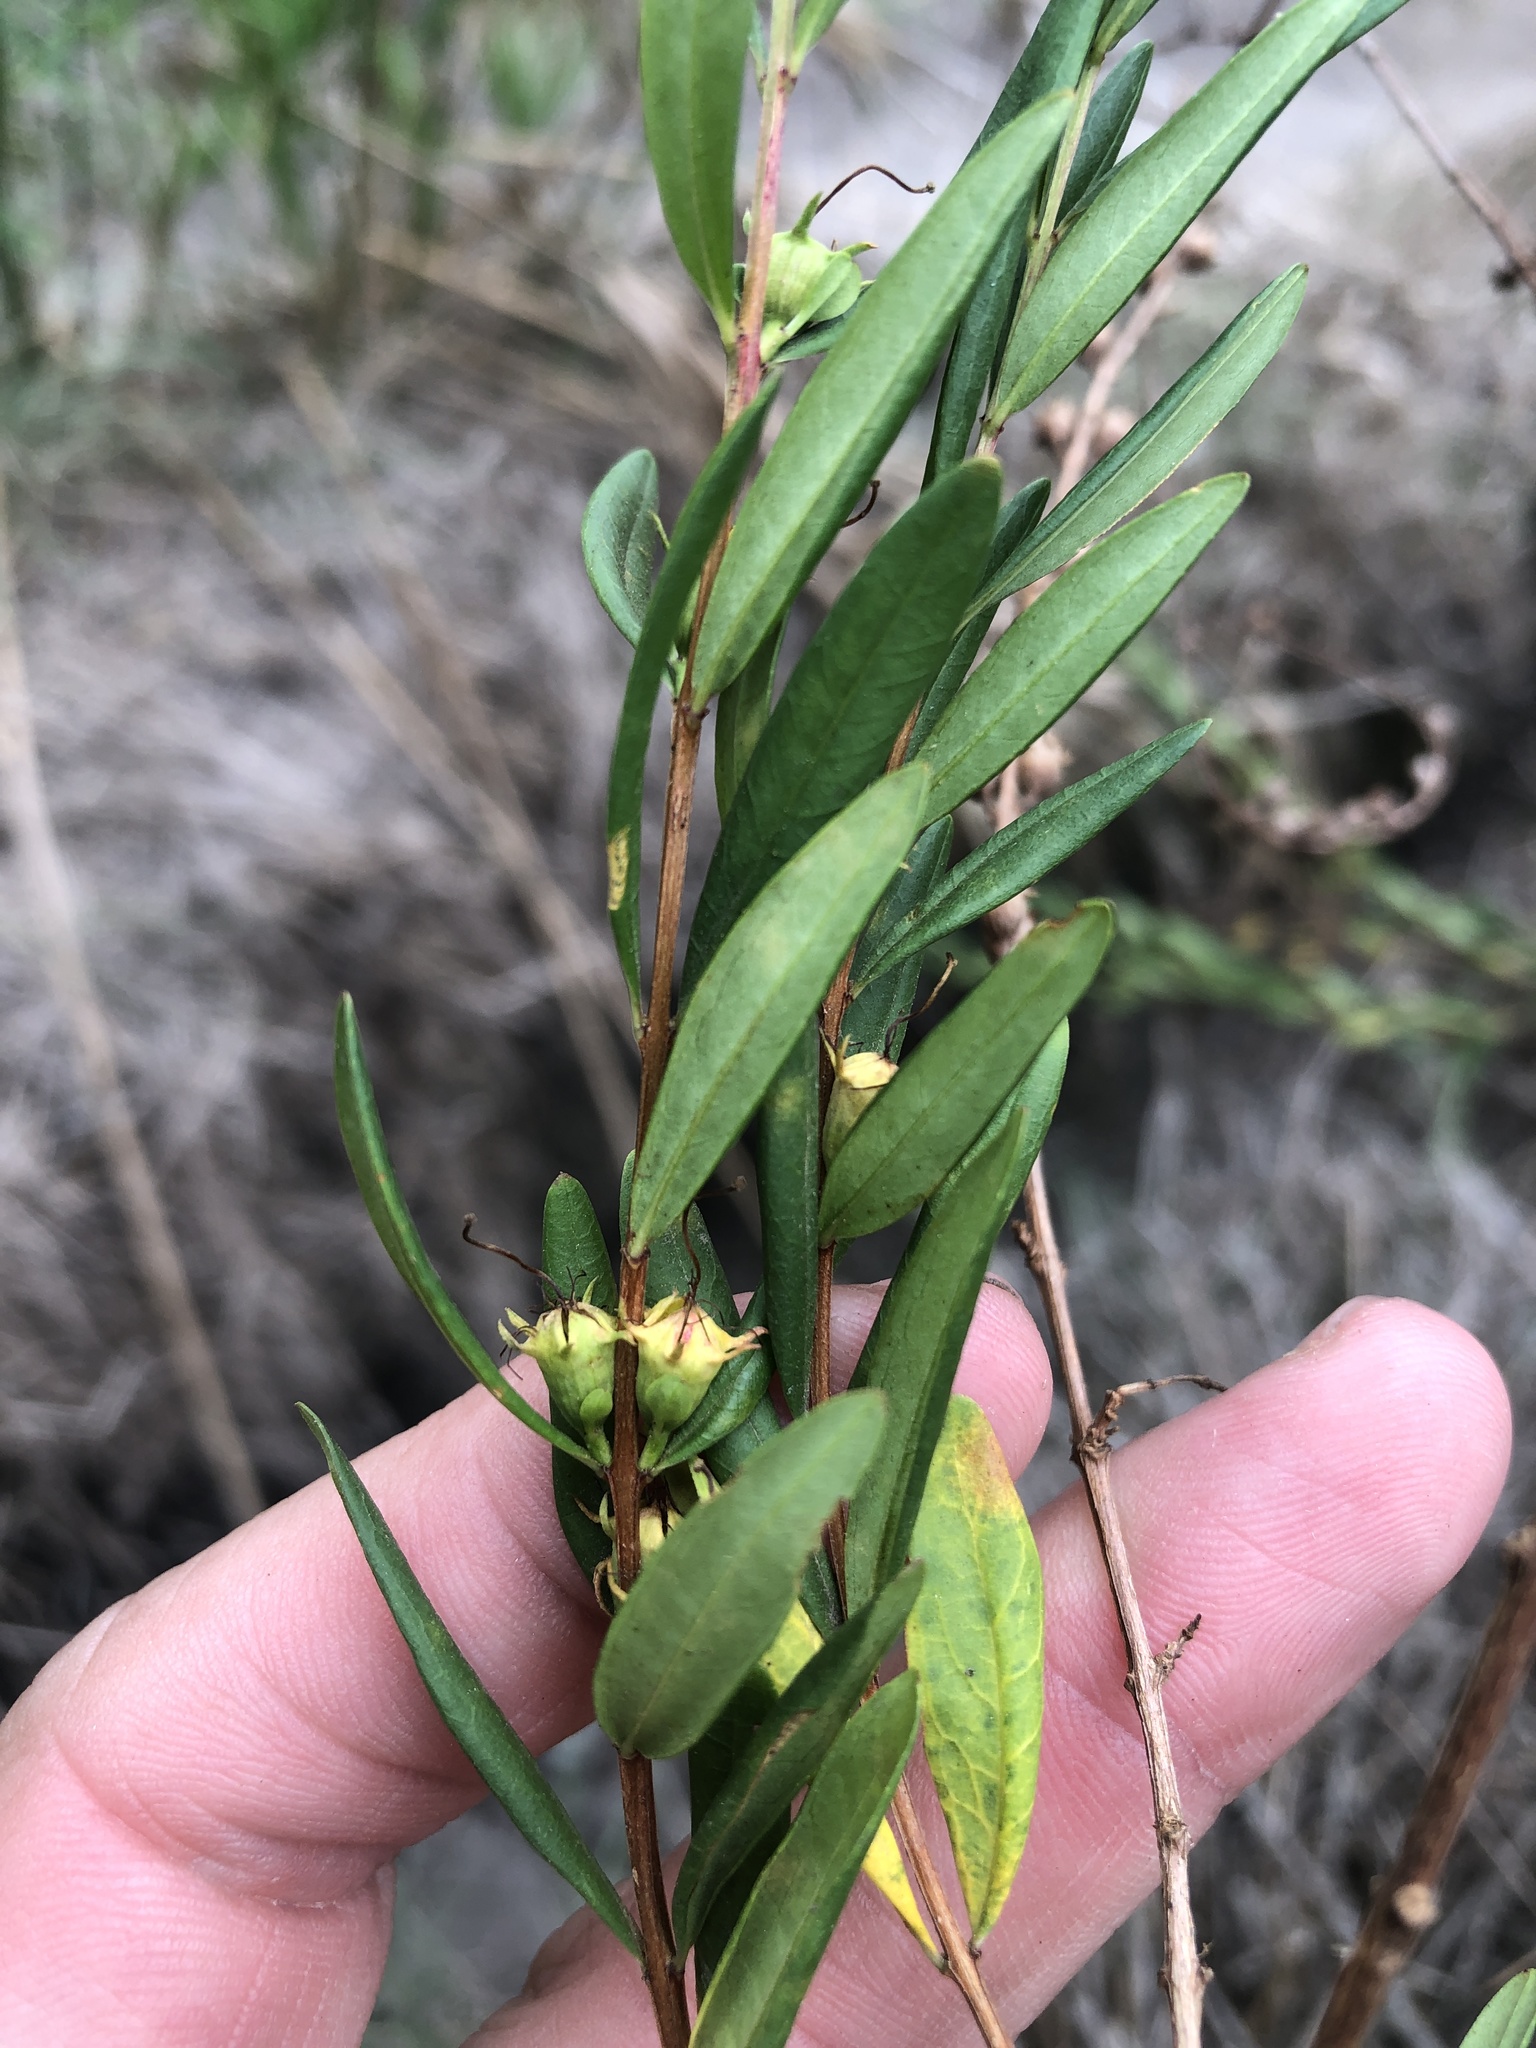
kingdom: Plantae
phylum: Tracheophyta
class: Magnoliopsida
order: Myrtales
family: Lythraceae
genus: Heimia
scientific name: Heimia salicifolia
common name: Willow-leaf heimia
